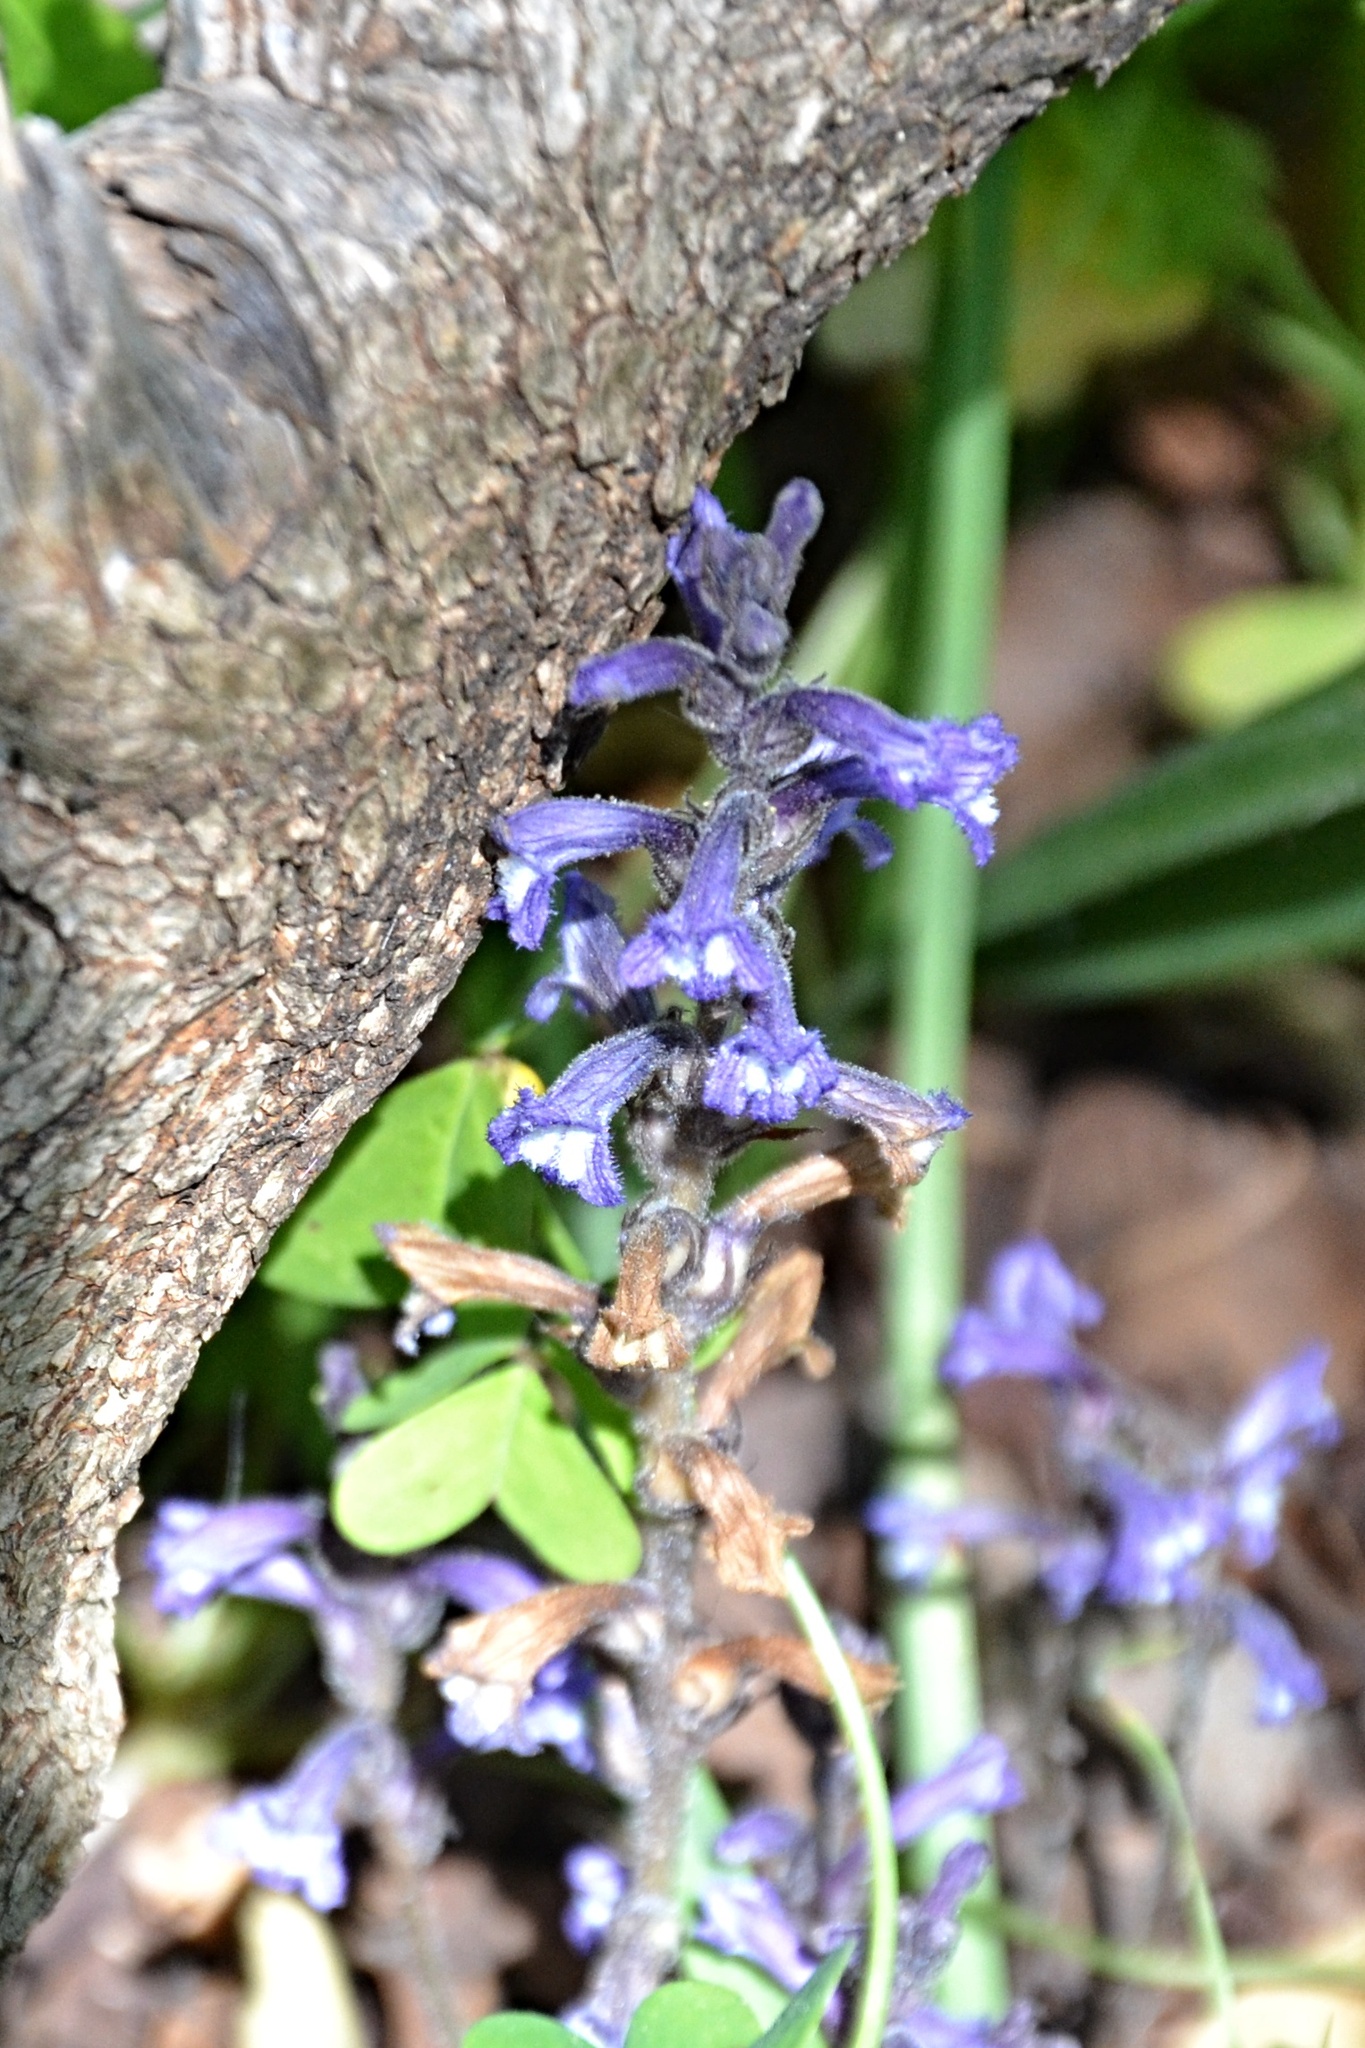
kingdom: Plantae
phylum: Tracheophyta
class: Magnoliopsida
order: Lamiales
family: Orobanchaceae
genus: Phelipanche
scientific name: Phelipanche mutelii
